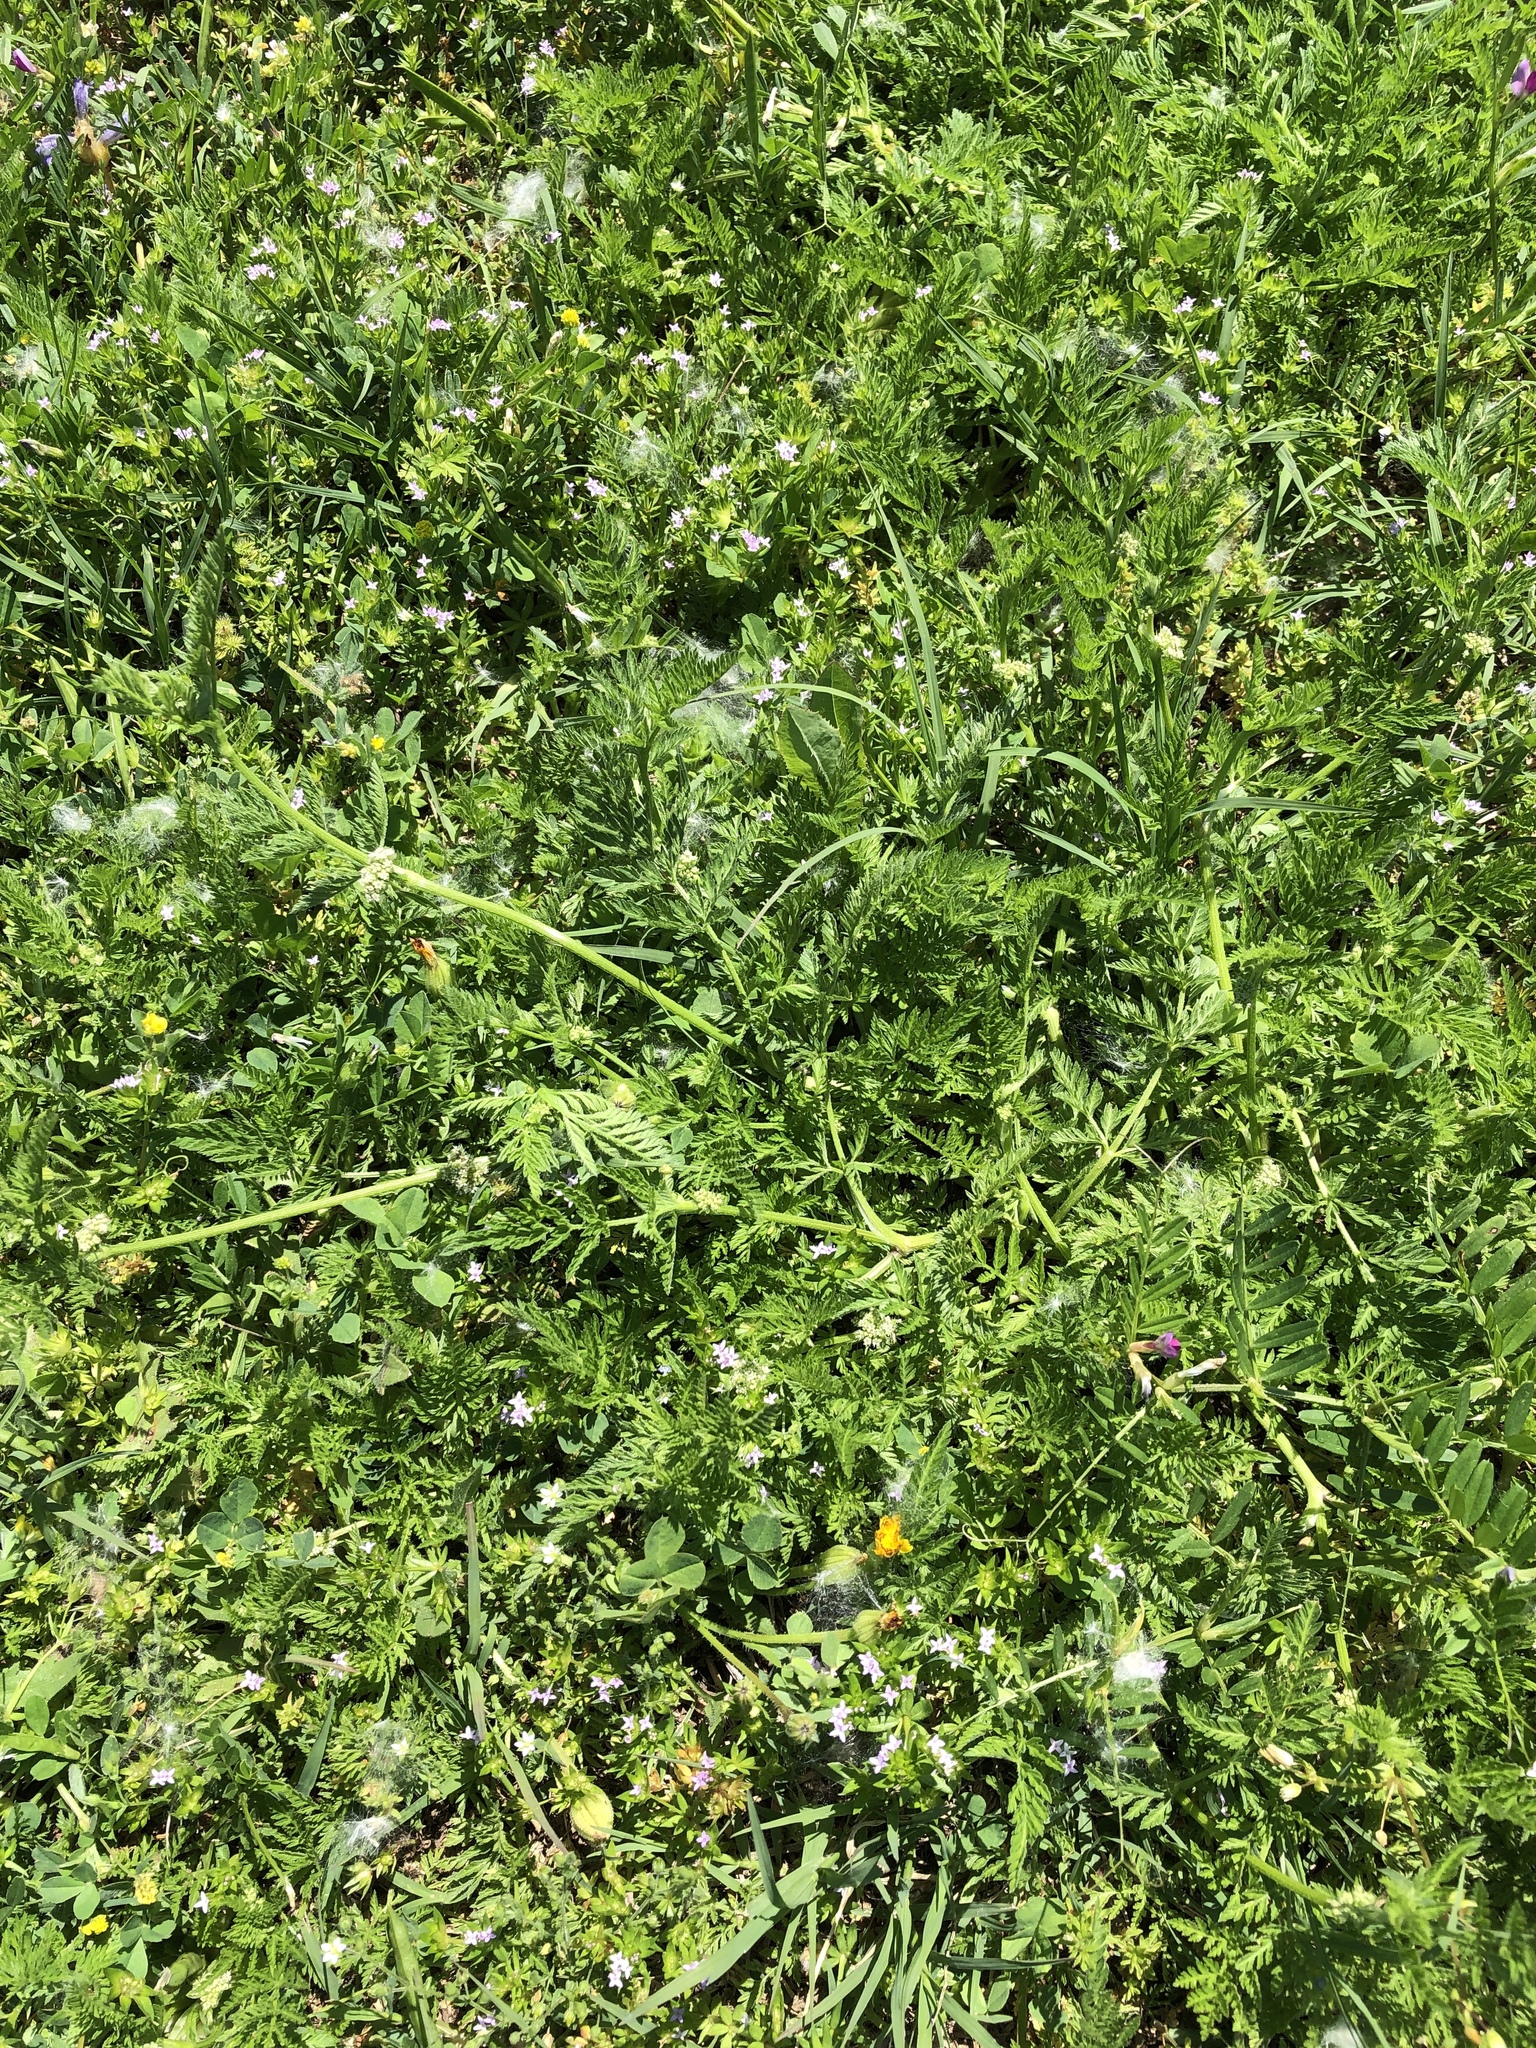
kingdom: Plantae
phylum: Tracheophyta
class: Magnoliopsida
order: Apiales
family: Apiaceae
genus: Torilis
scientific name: Torilis nodosa
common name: Knotted hedge-parsley
